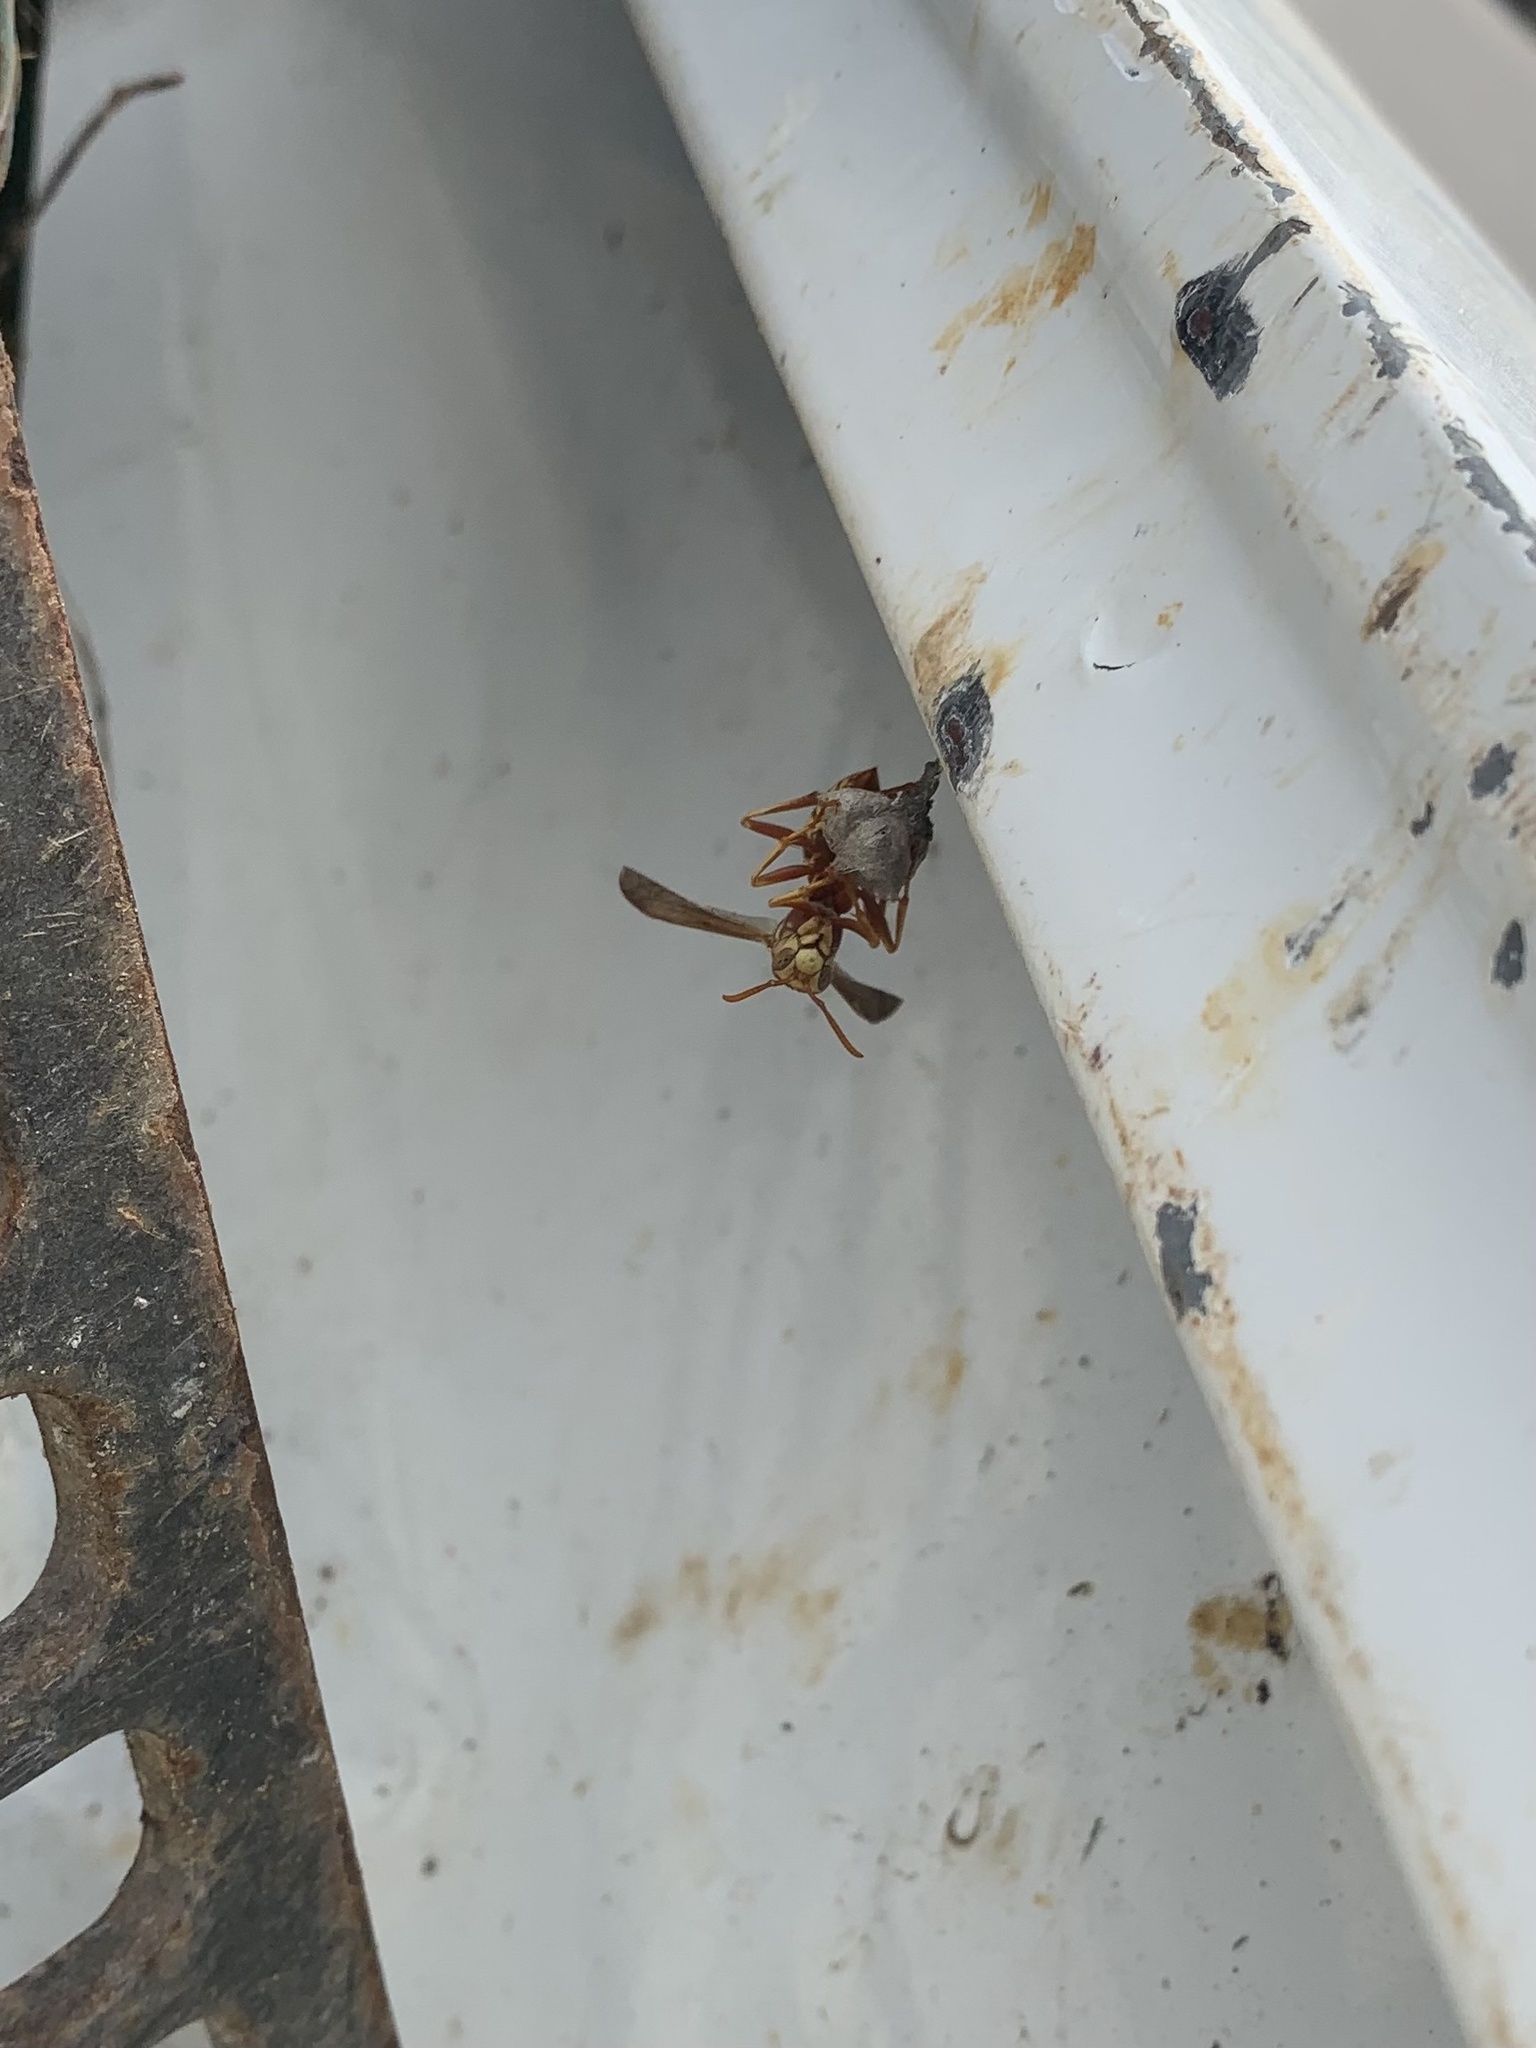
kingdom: Animalia
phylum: Arthropoda
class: Insecta
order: Hymenoptera
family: Eumenidae
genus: Polistes
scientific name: Polistes apachus
